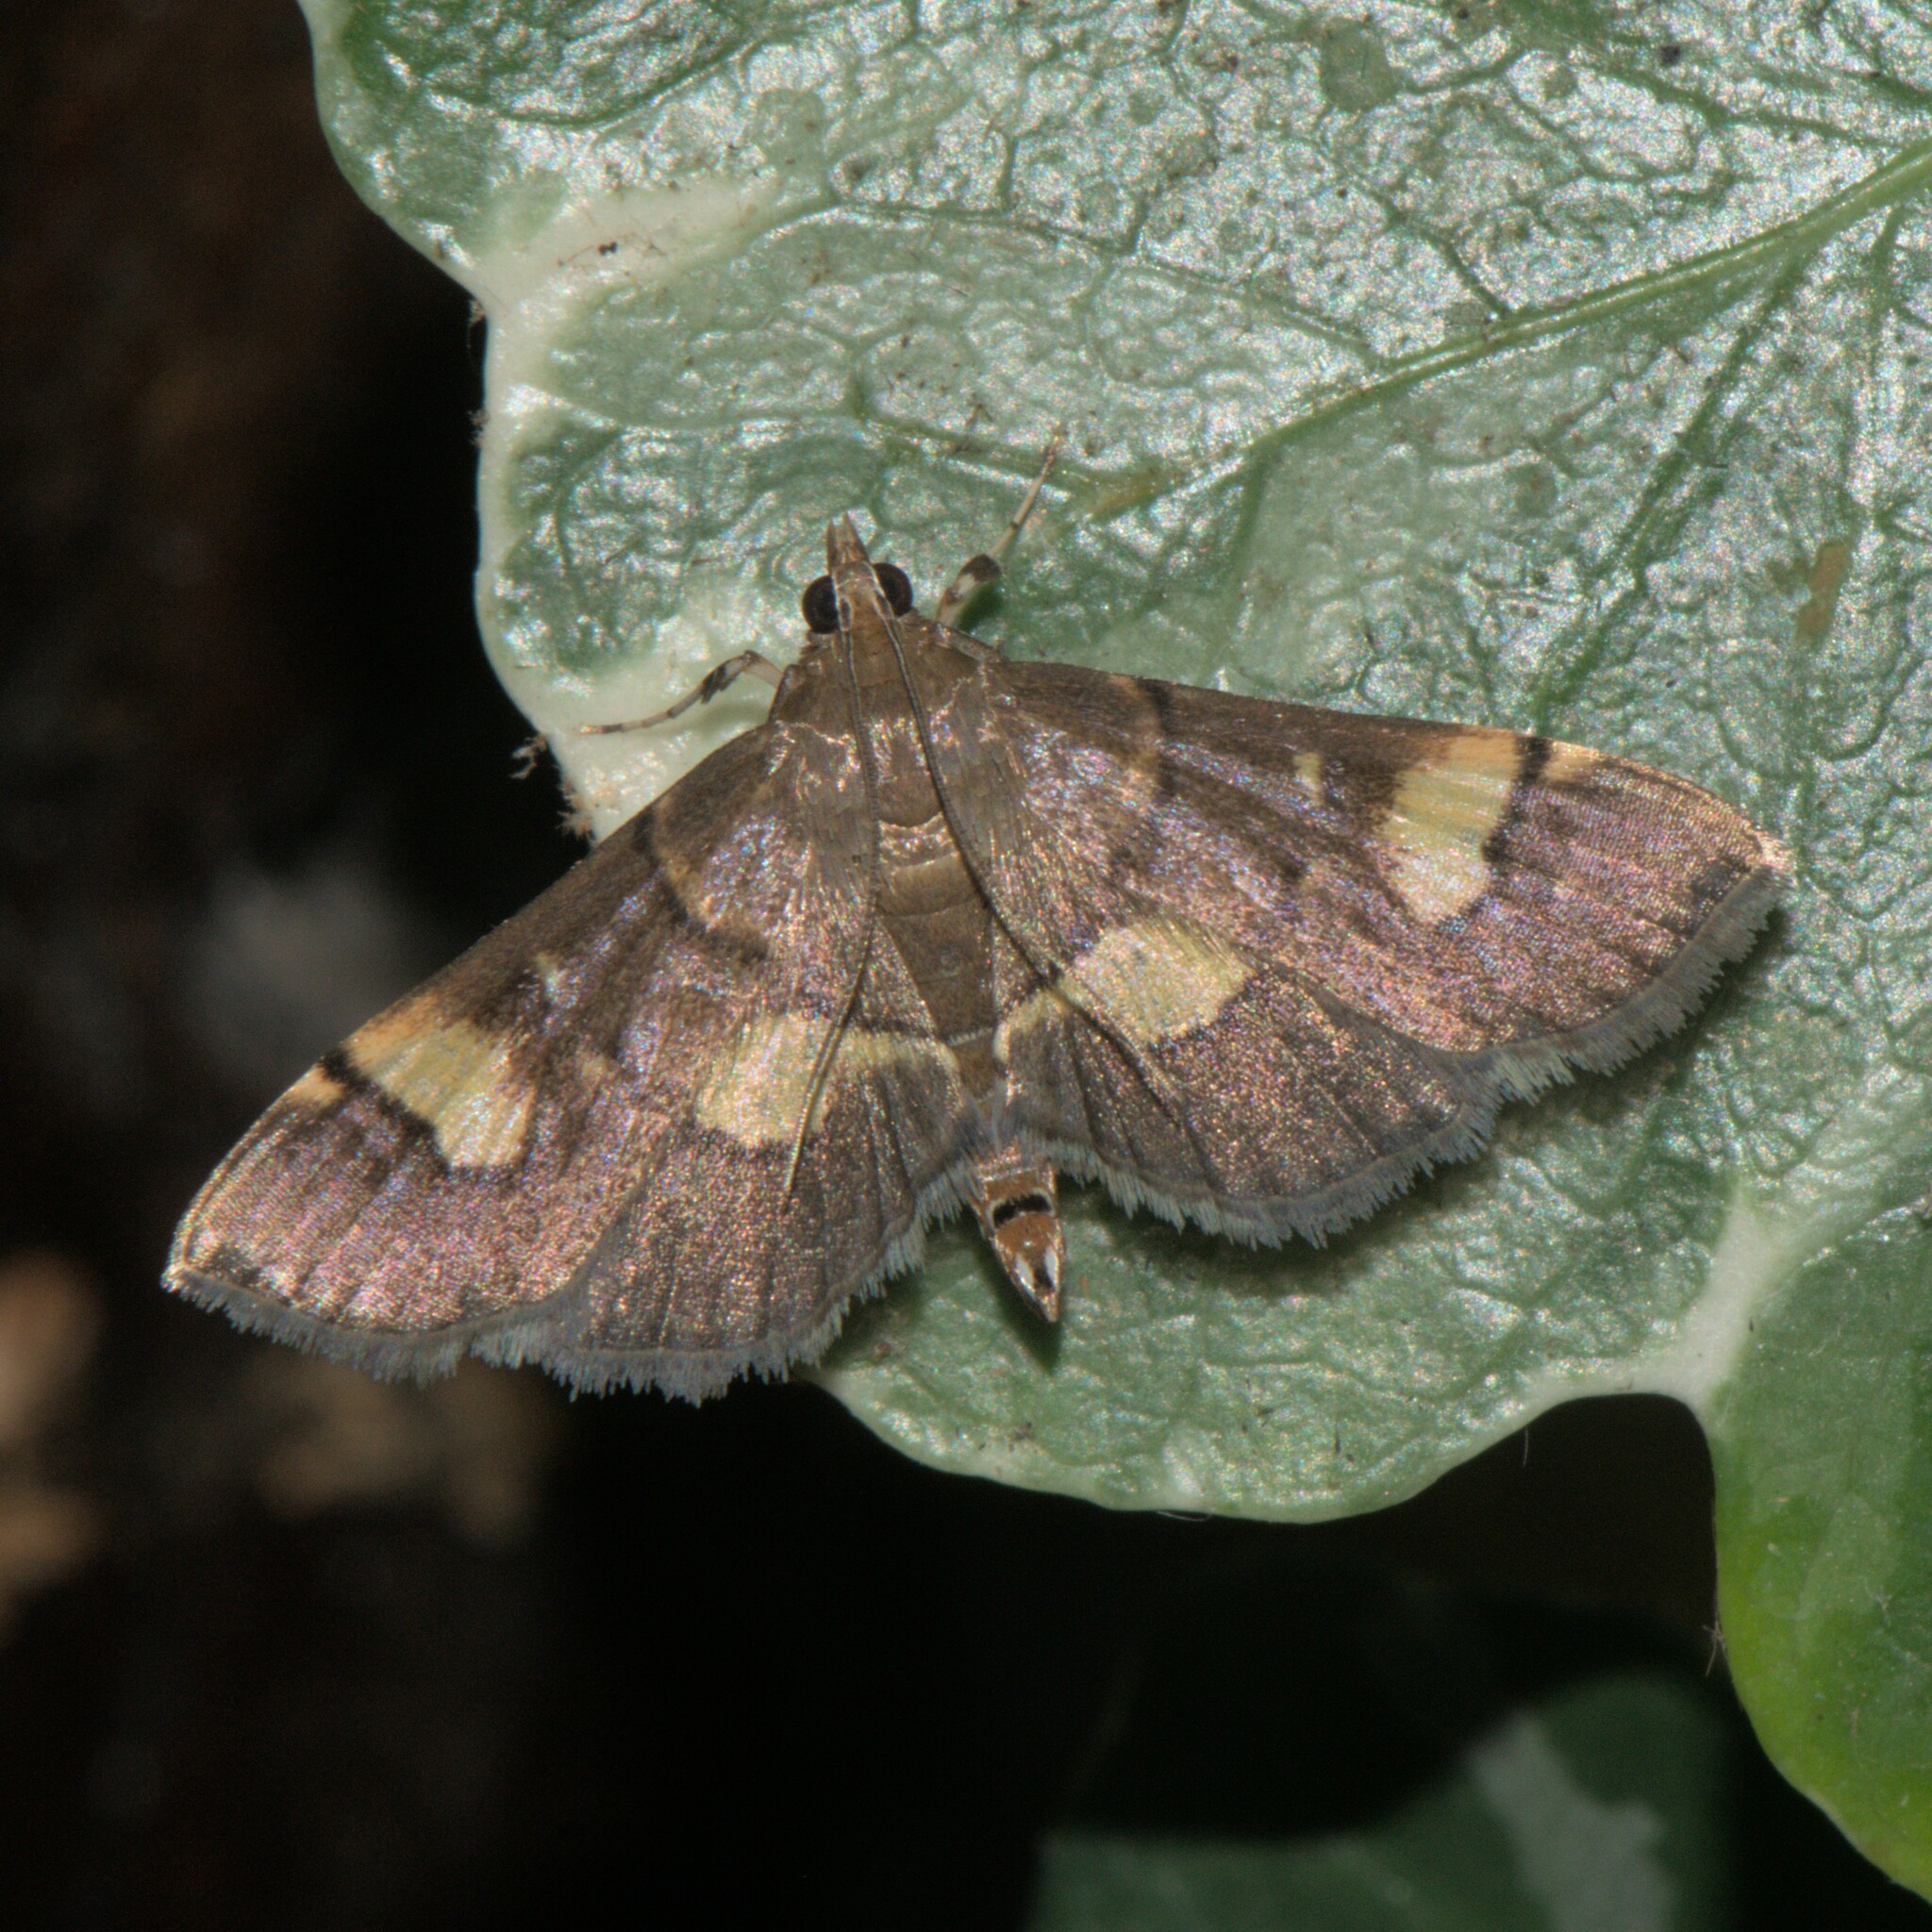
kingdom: Animalia
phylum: Arthropoda
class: Insecta
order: Lepidoptera
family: Crambidae
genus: Syngamia
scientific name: Syngamia falsidicalis
